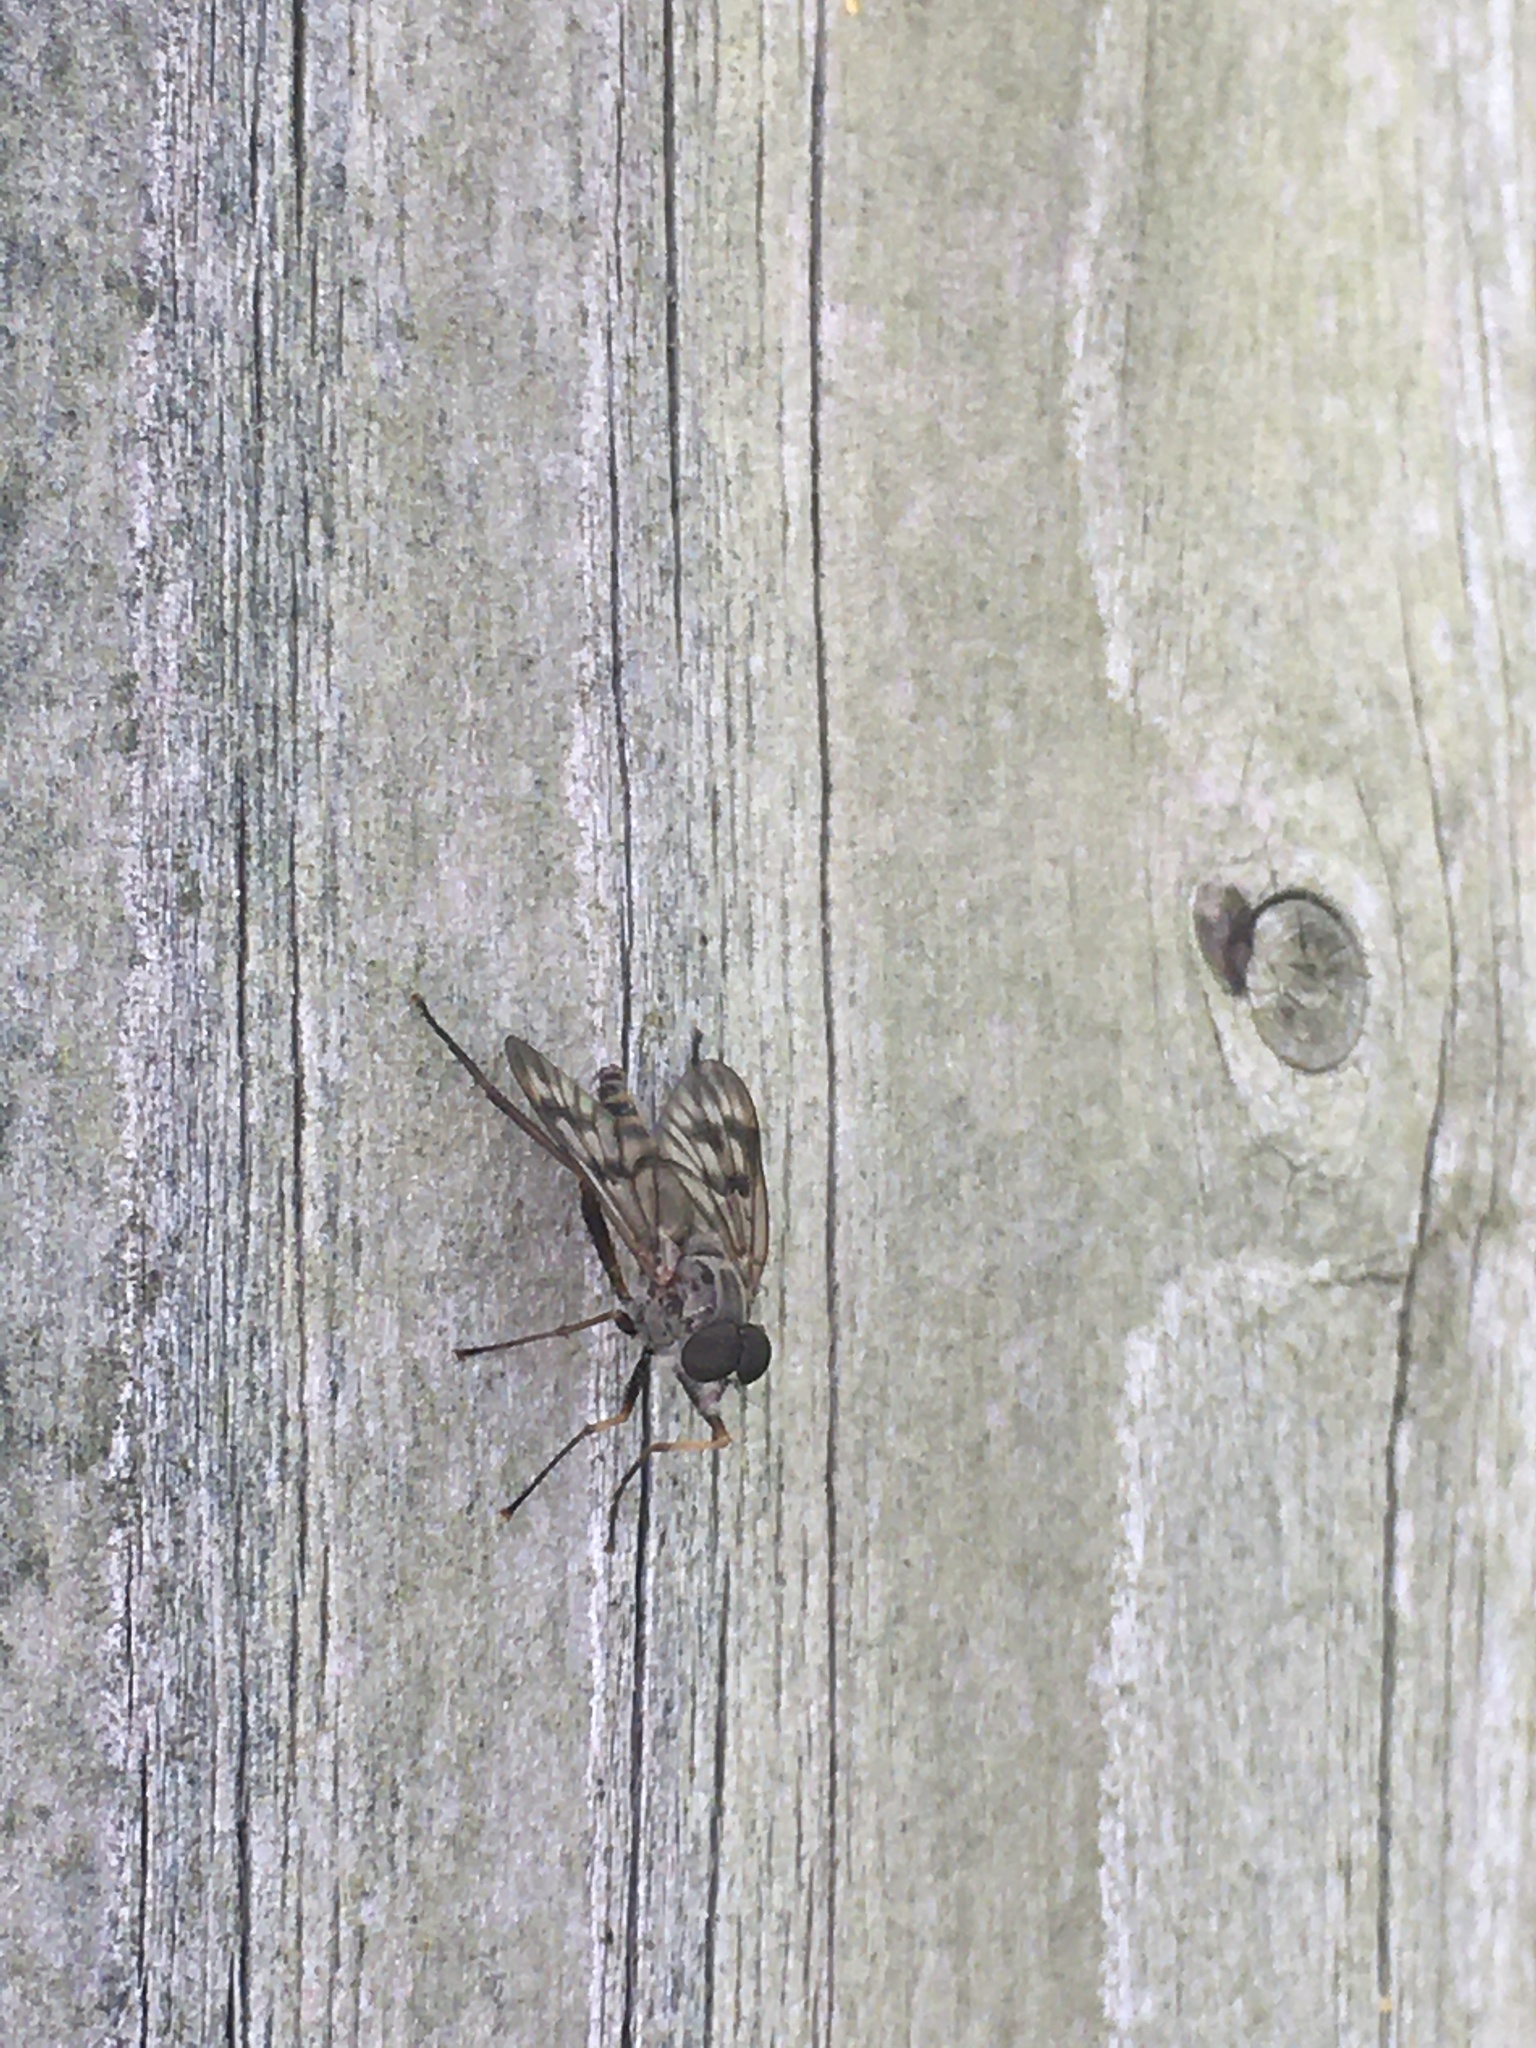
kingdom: Animalia
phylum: Arthropoda
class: Insecta
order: Diptera
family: Rhagionidae
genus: Rhagio
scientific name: Rhagio mystaceus
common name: Common snipe fly
